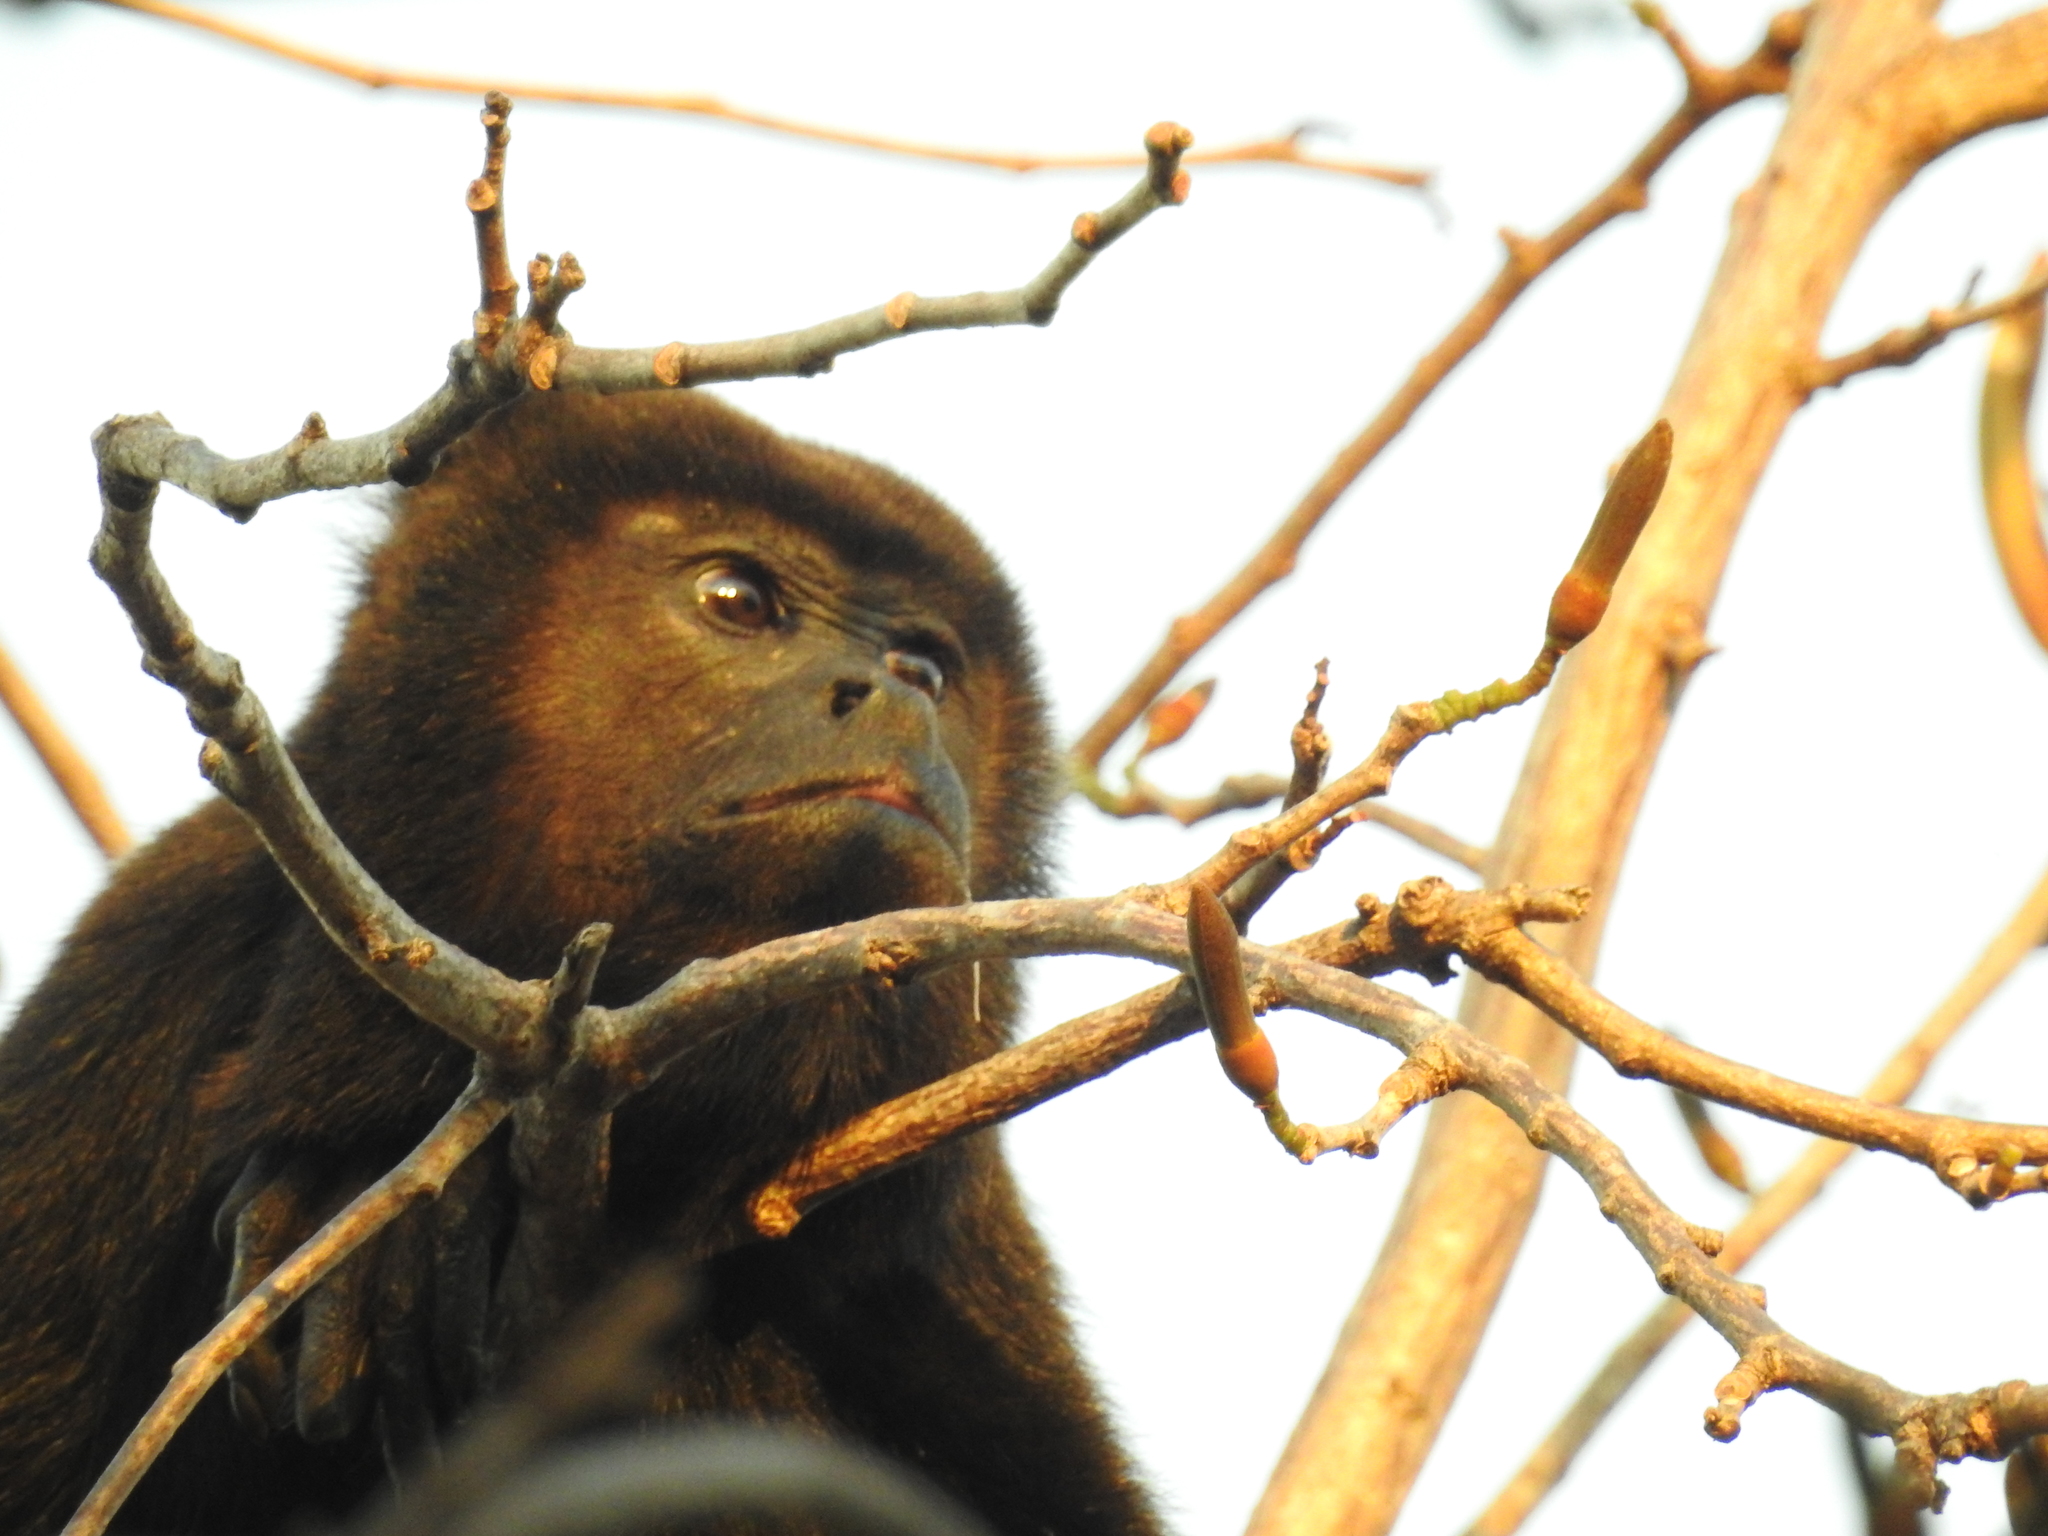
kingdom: Animalia
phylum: Chordata
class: Mammalia
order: Primates
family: Atelidae
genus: Alouatta
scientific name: Alouatta palliata
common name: Mantled howler
